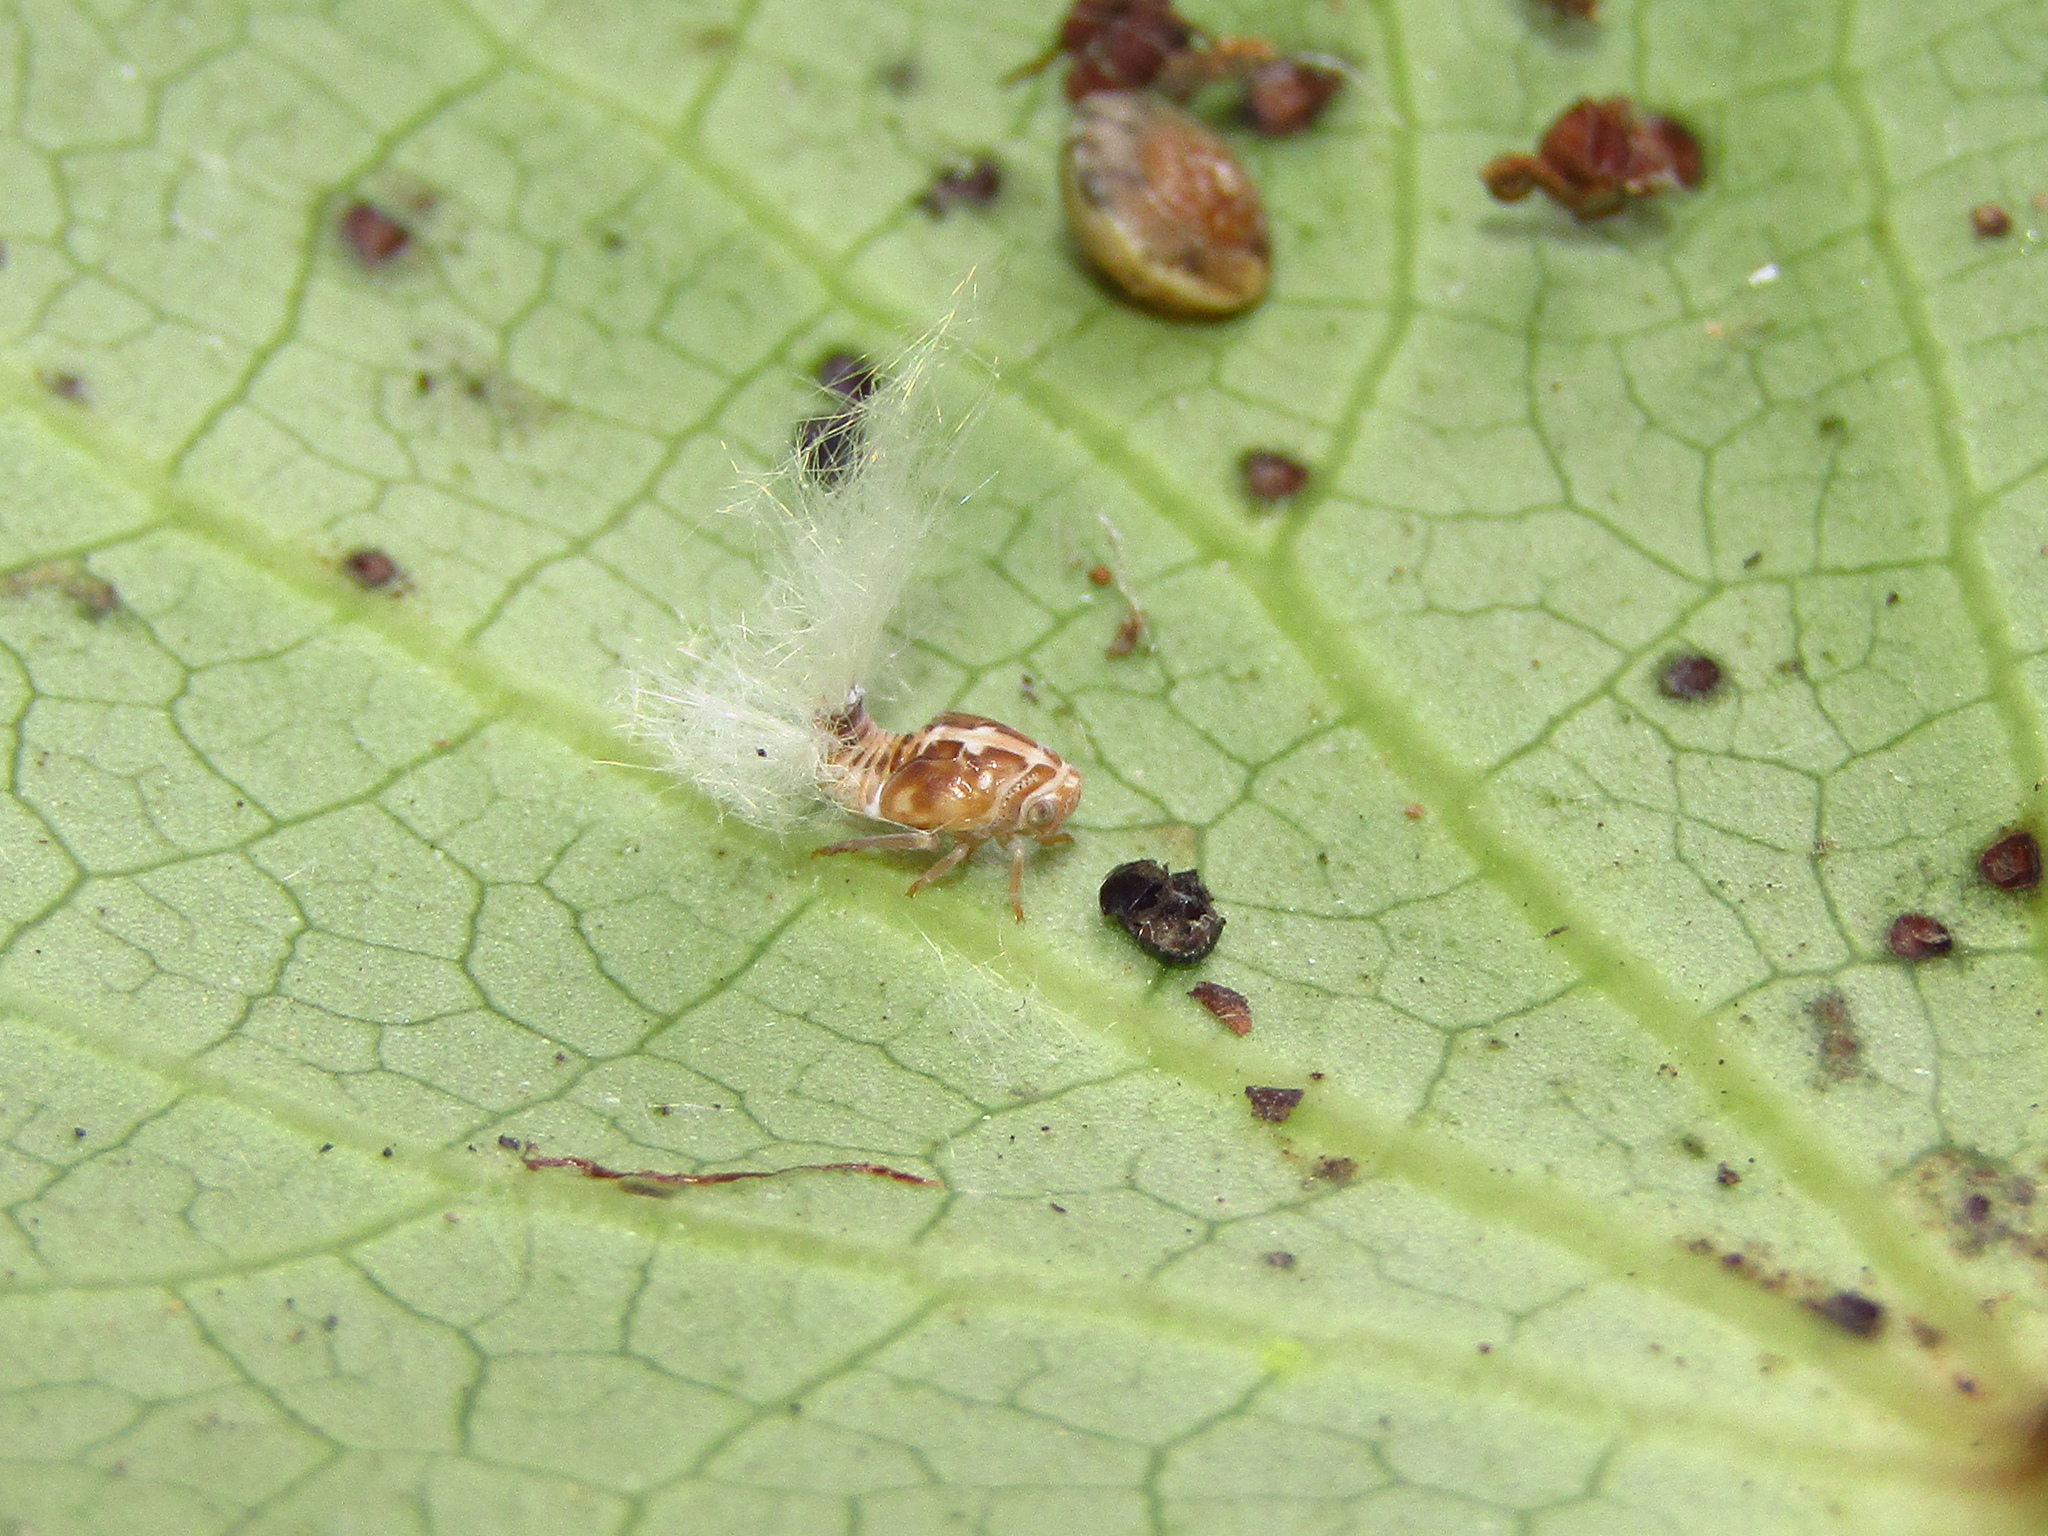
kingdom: Animalia
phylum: Arthropoda
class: Insecta
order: Hemiptera
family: Ricaniidae
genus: Scolypopa
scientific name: Scolypopa australis
